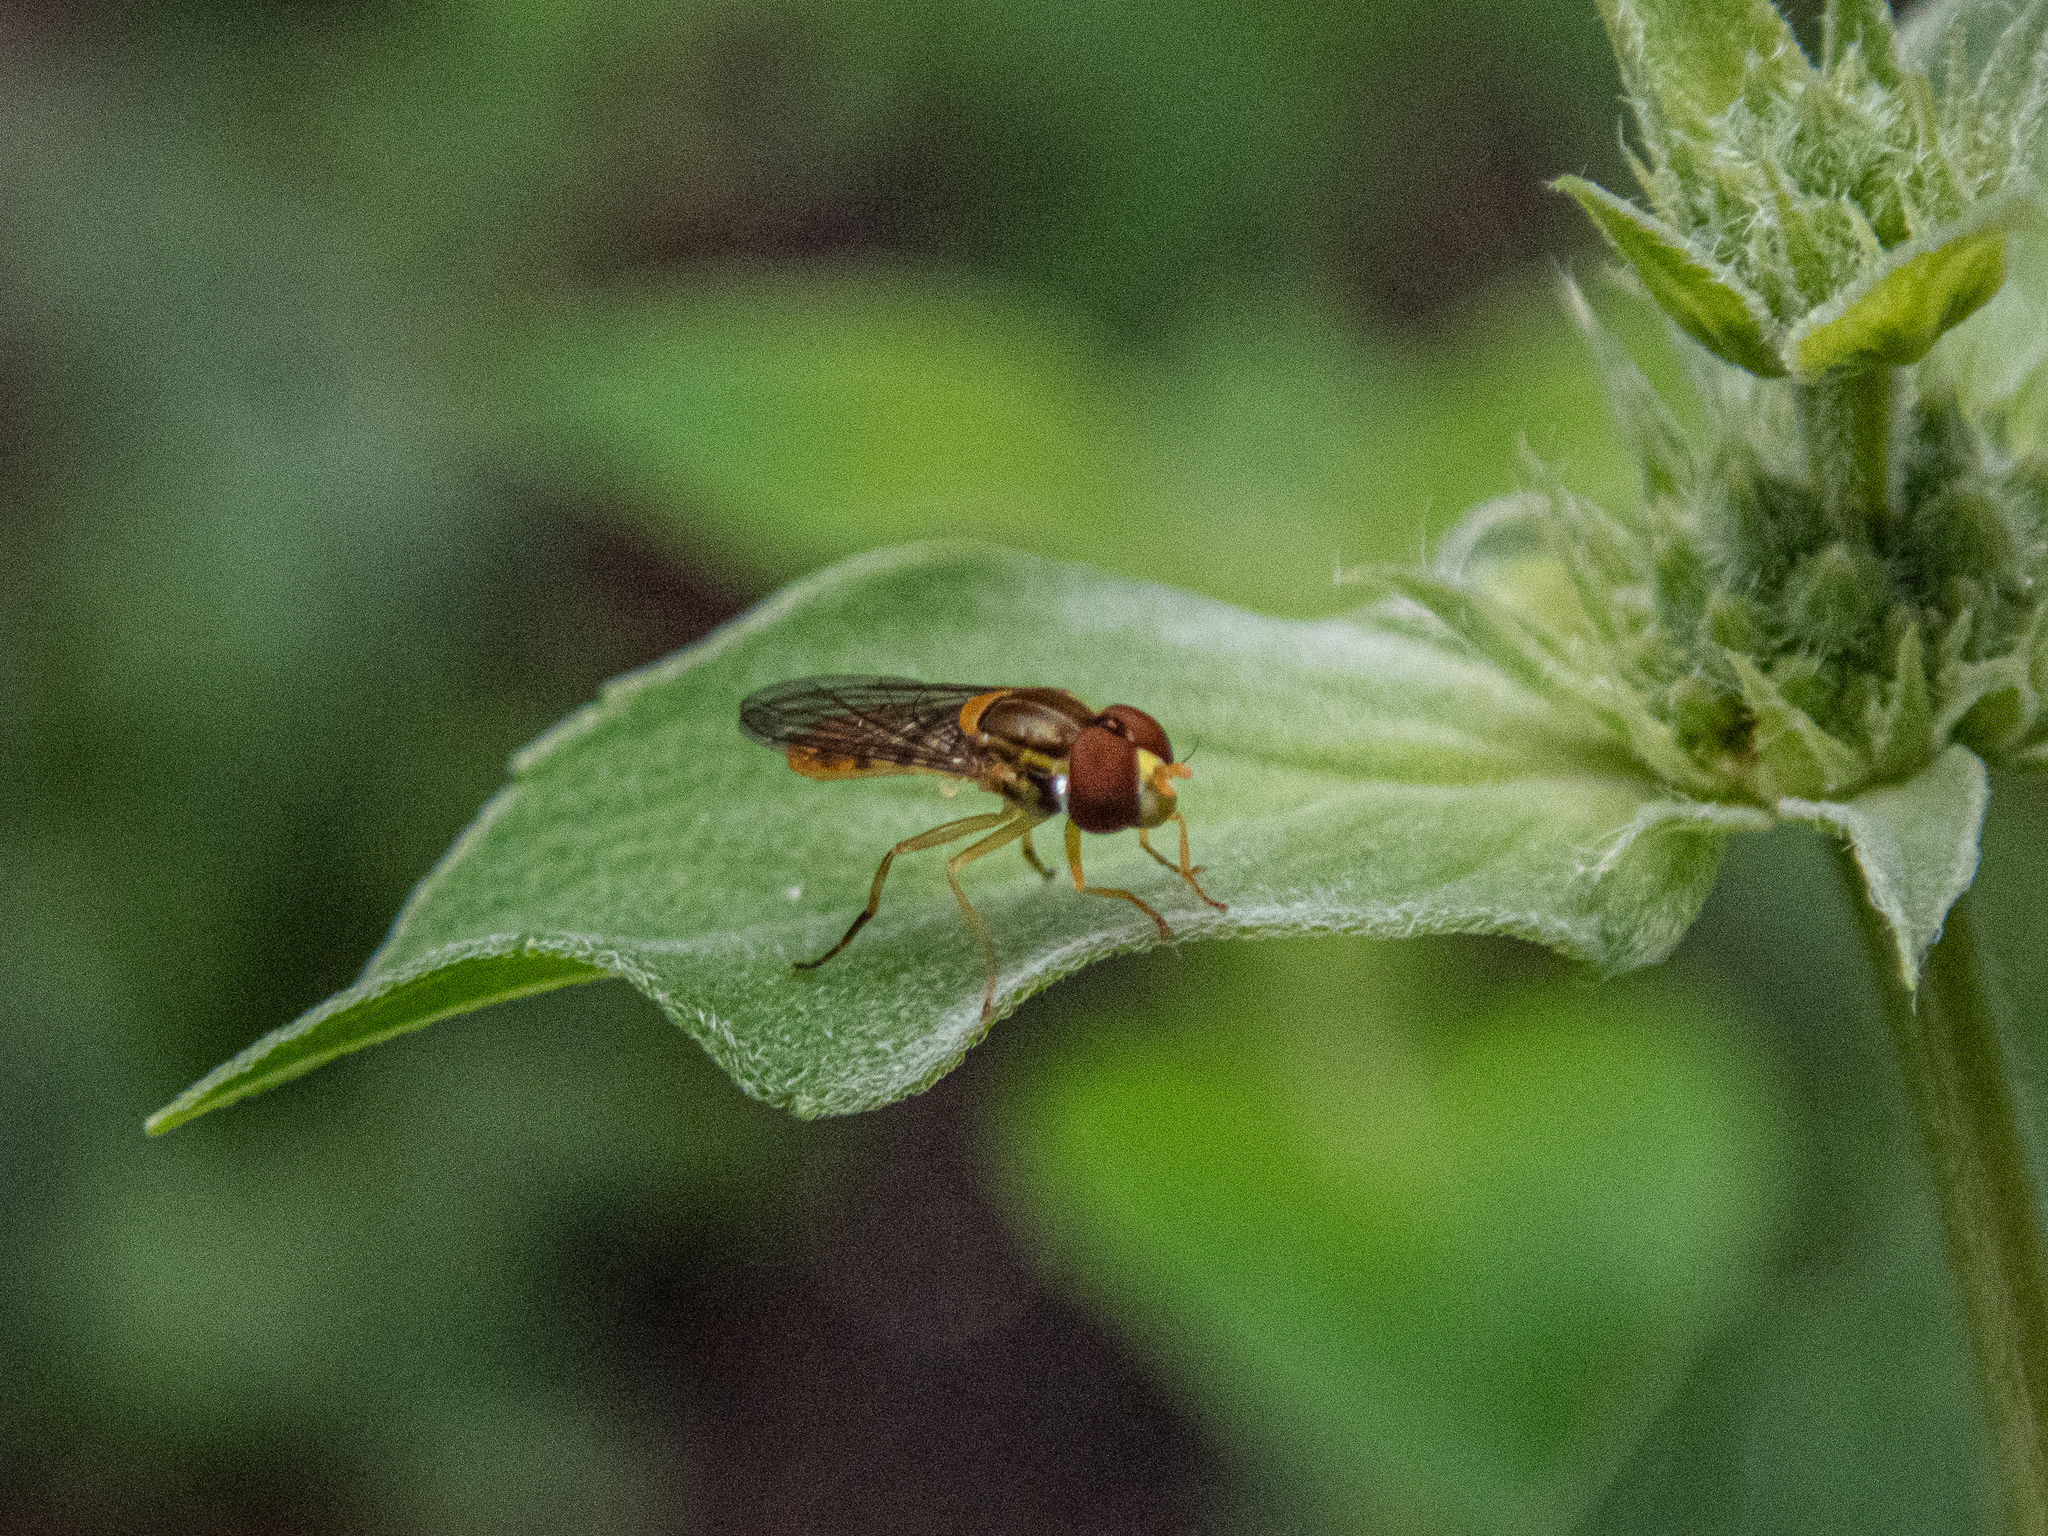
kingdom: Animalia
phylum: Arthropoda
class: Insecta
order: Diptera
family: Syrphidae
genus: Toxomerus
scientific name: Toxomerus marginatus
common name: Syrphid fly
